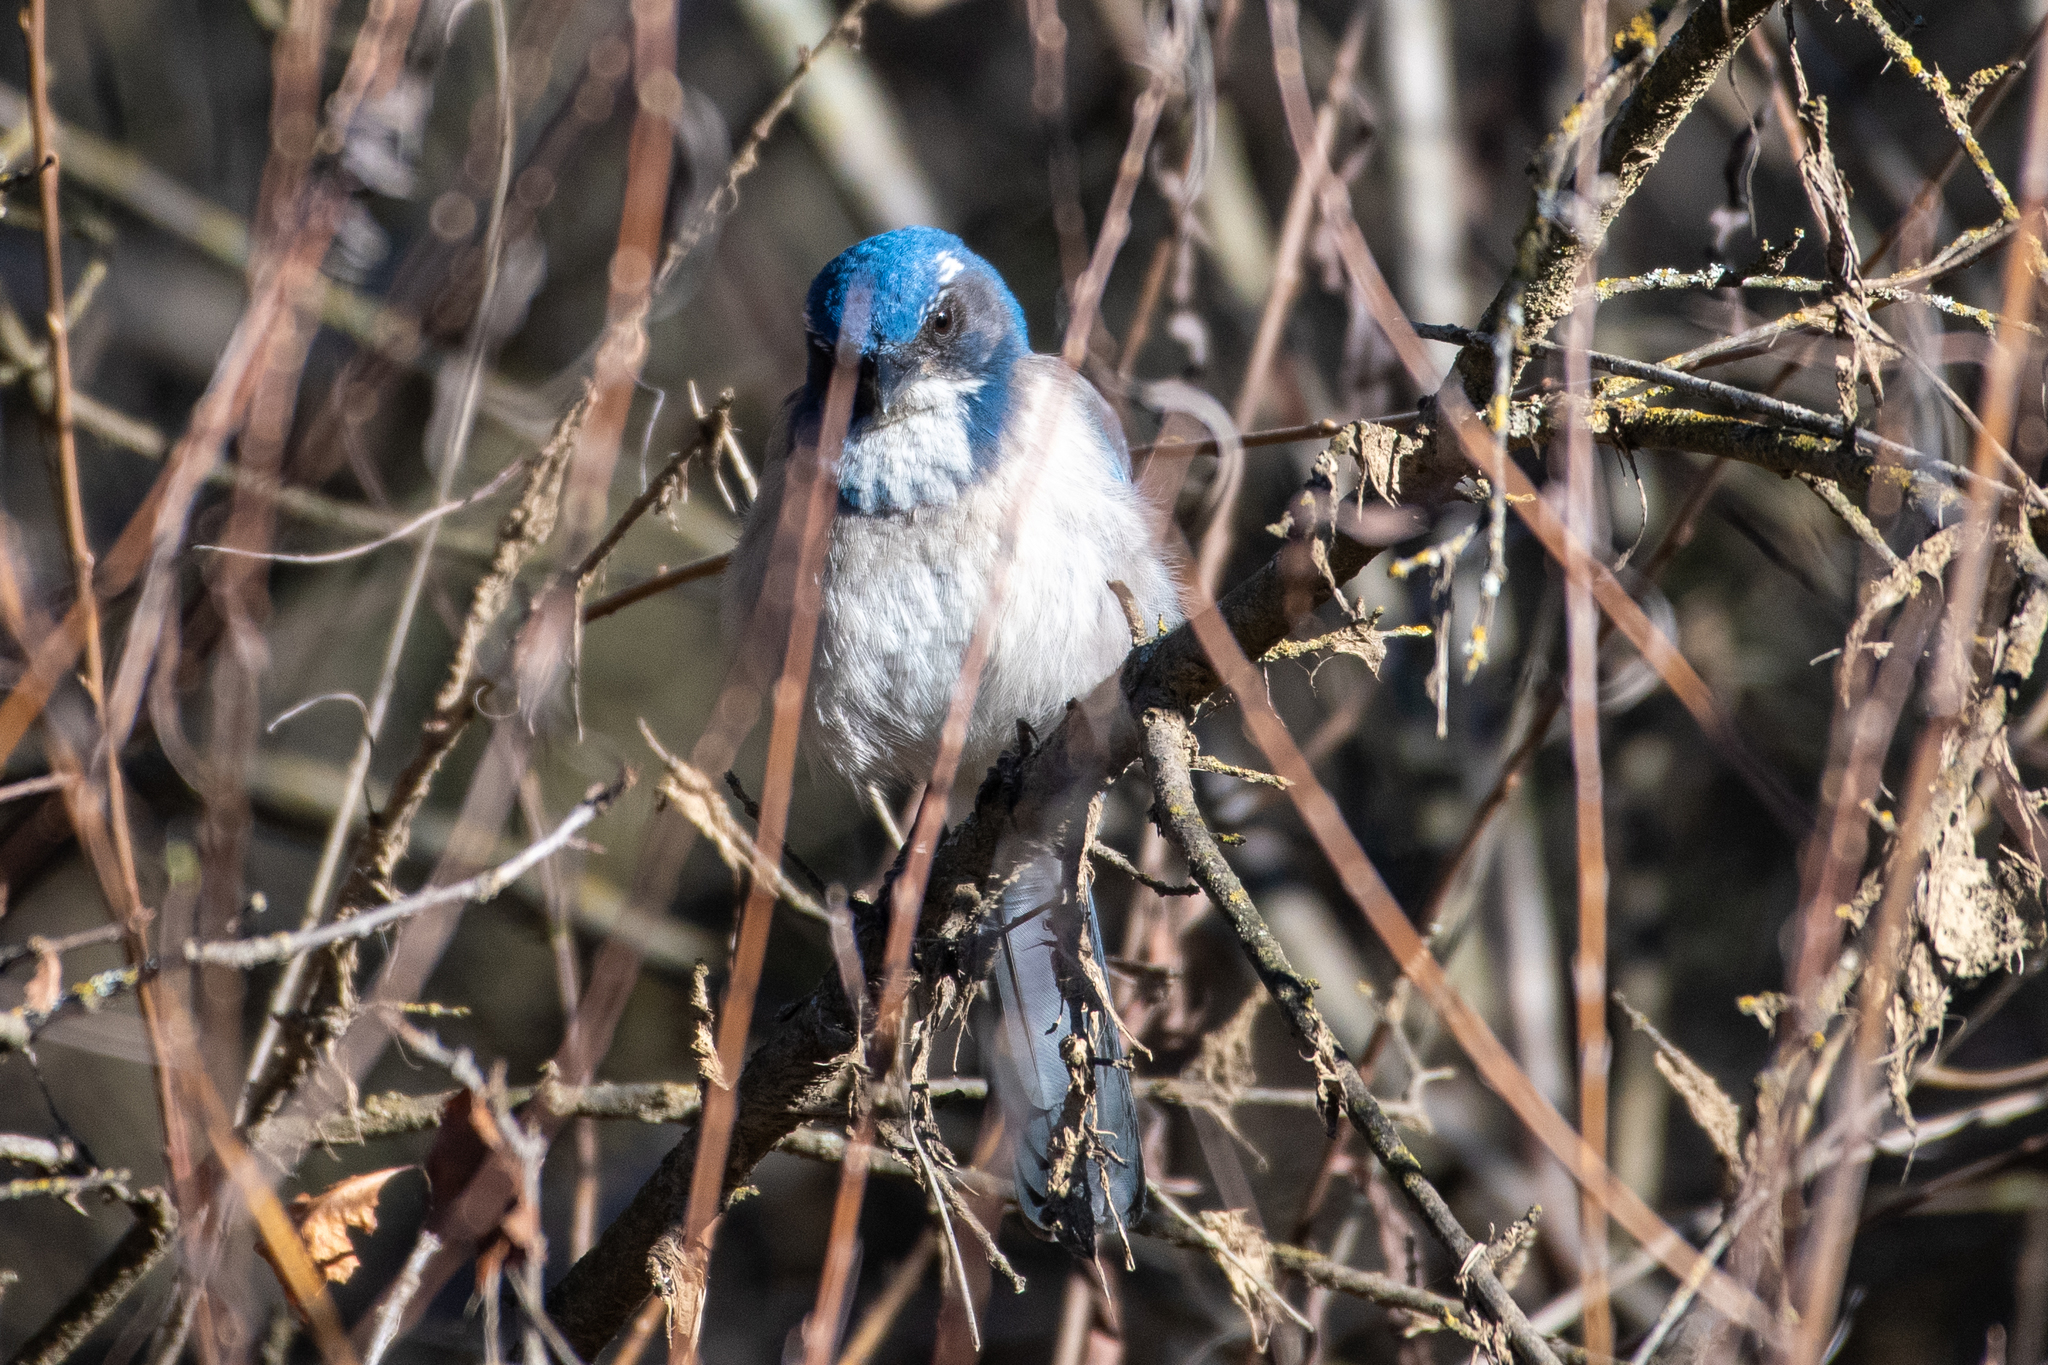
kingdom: Animalia
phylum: Chordata
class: Aves
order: Passeriformes
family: Corvidae
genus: Aphelocoma
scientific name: Aphelocoma californica
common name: California scrub-jay
